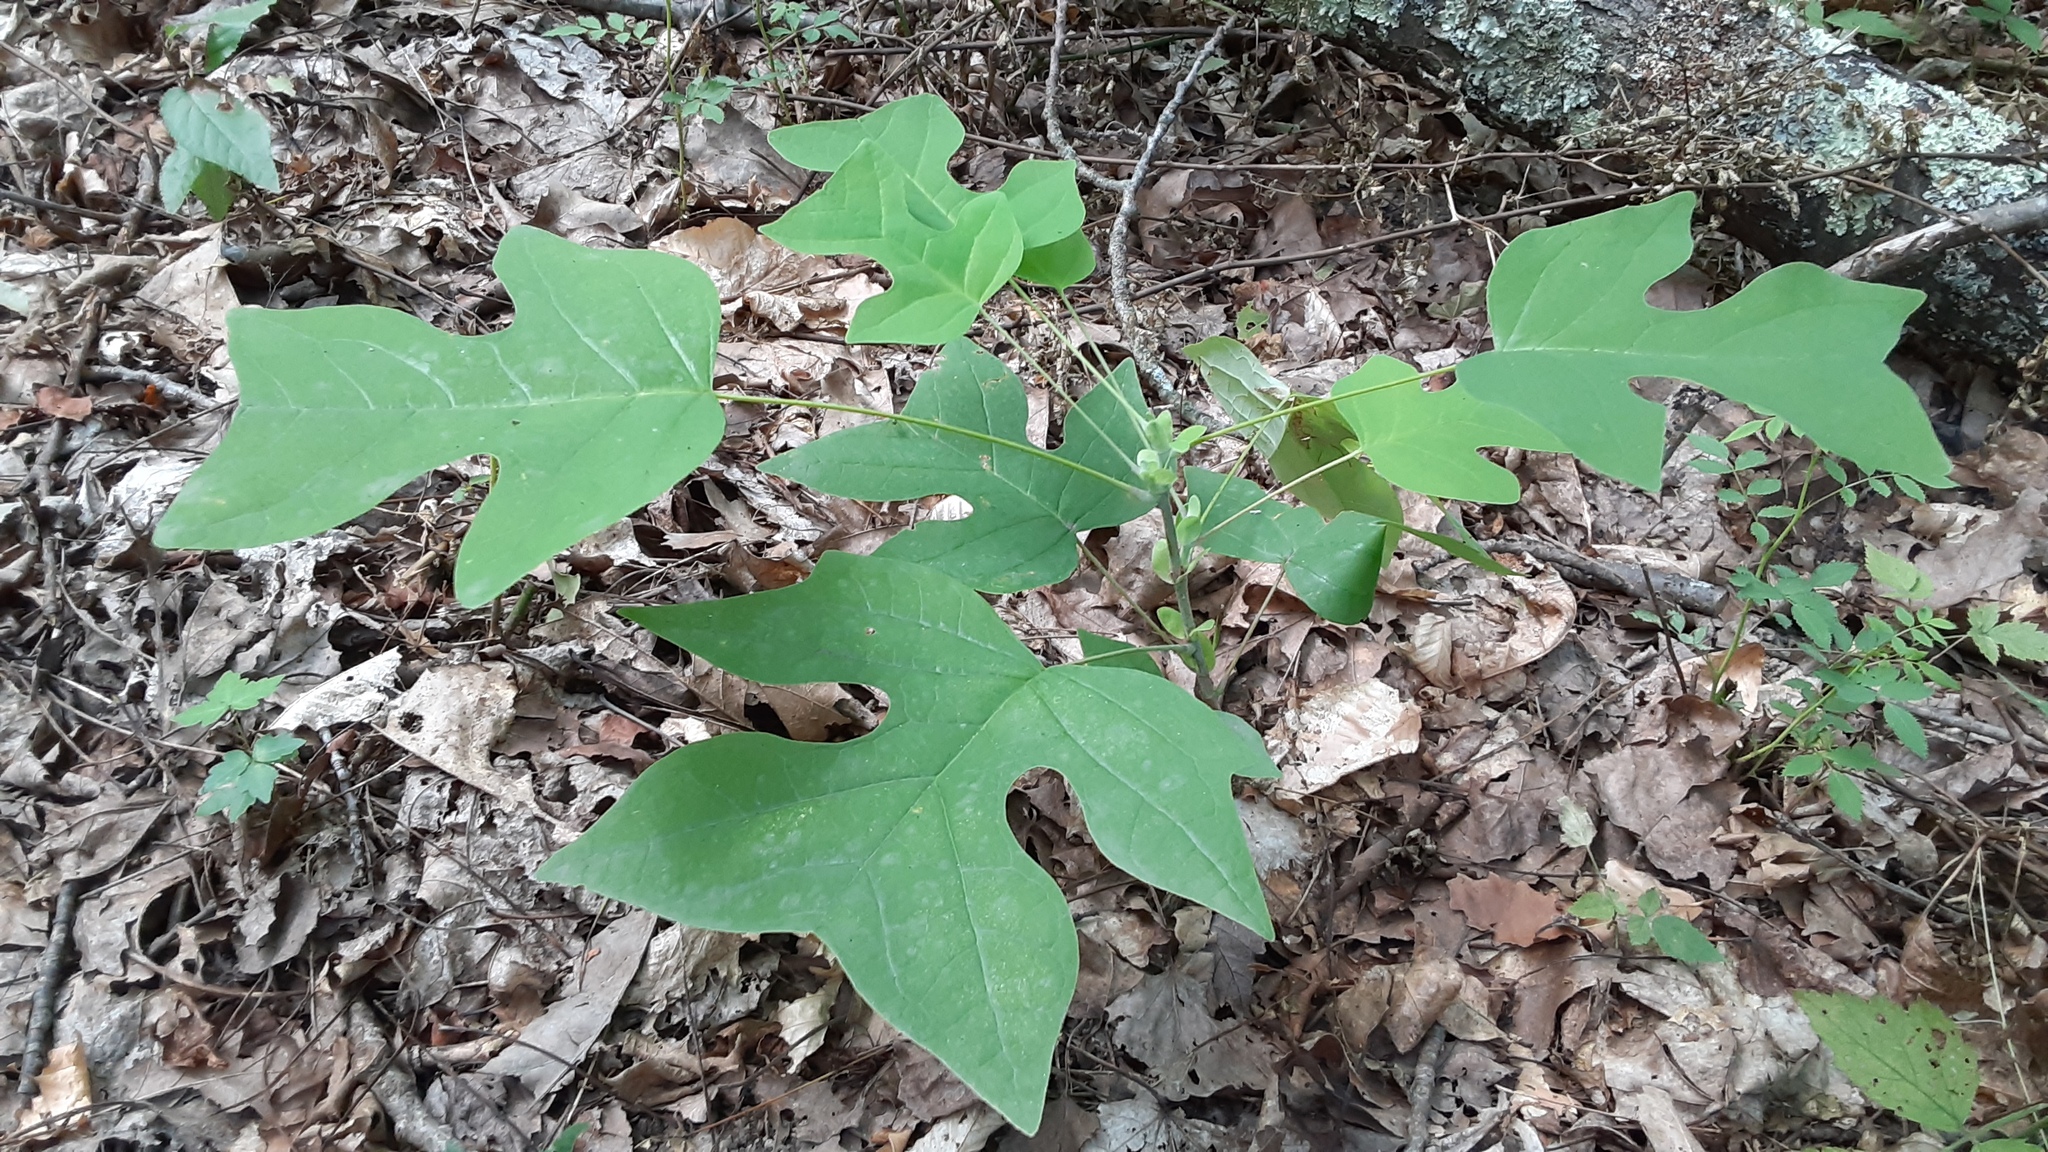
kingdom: Plantae
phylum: Tracheophyta
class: Magnoliopsida
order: Magnoliales
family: Magnoliaceae
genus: Liriodendron
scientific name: Liriodendron tulipifera
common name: Tulip tree
